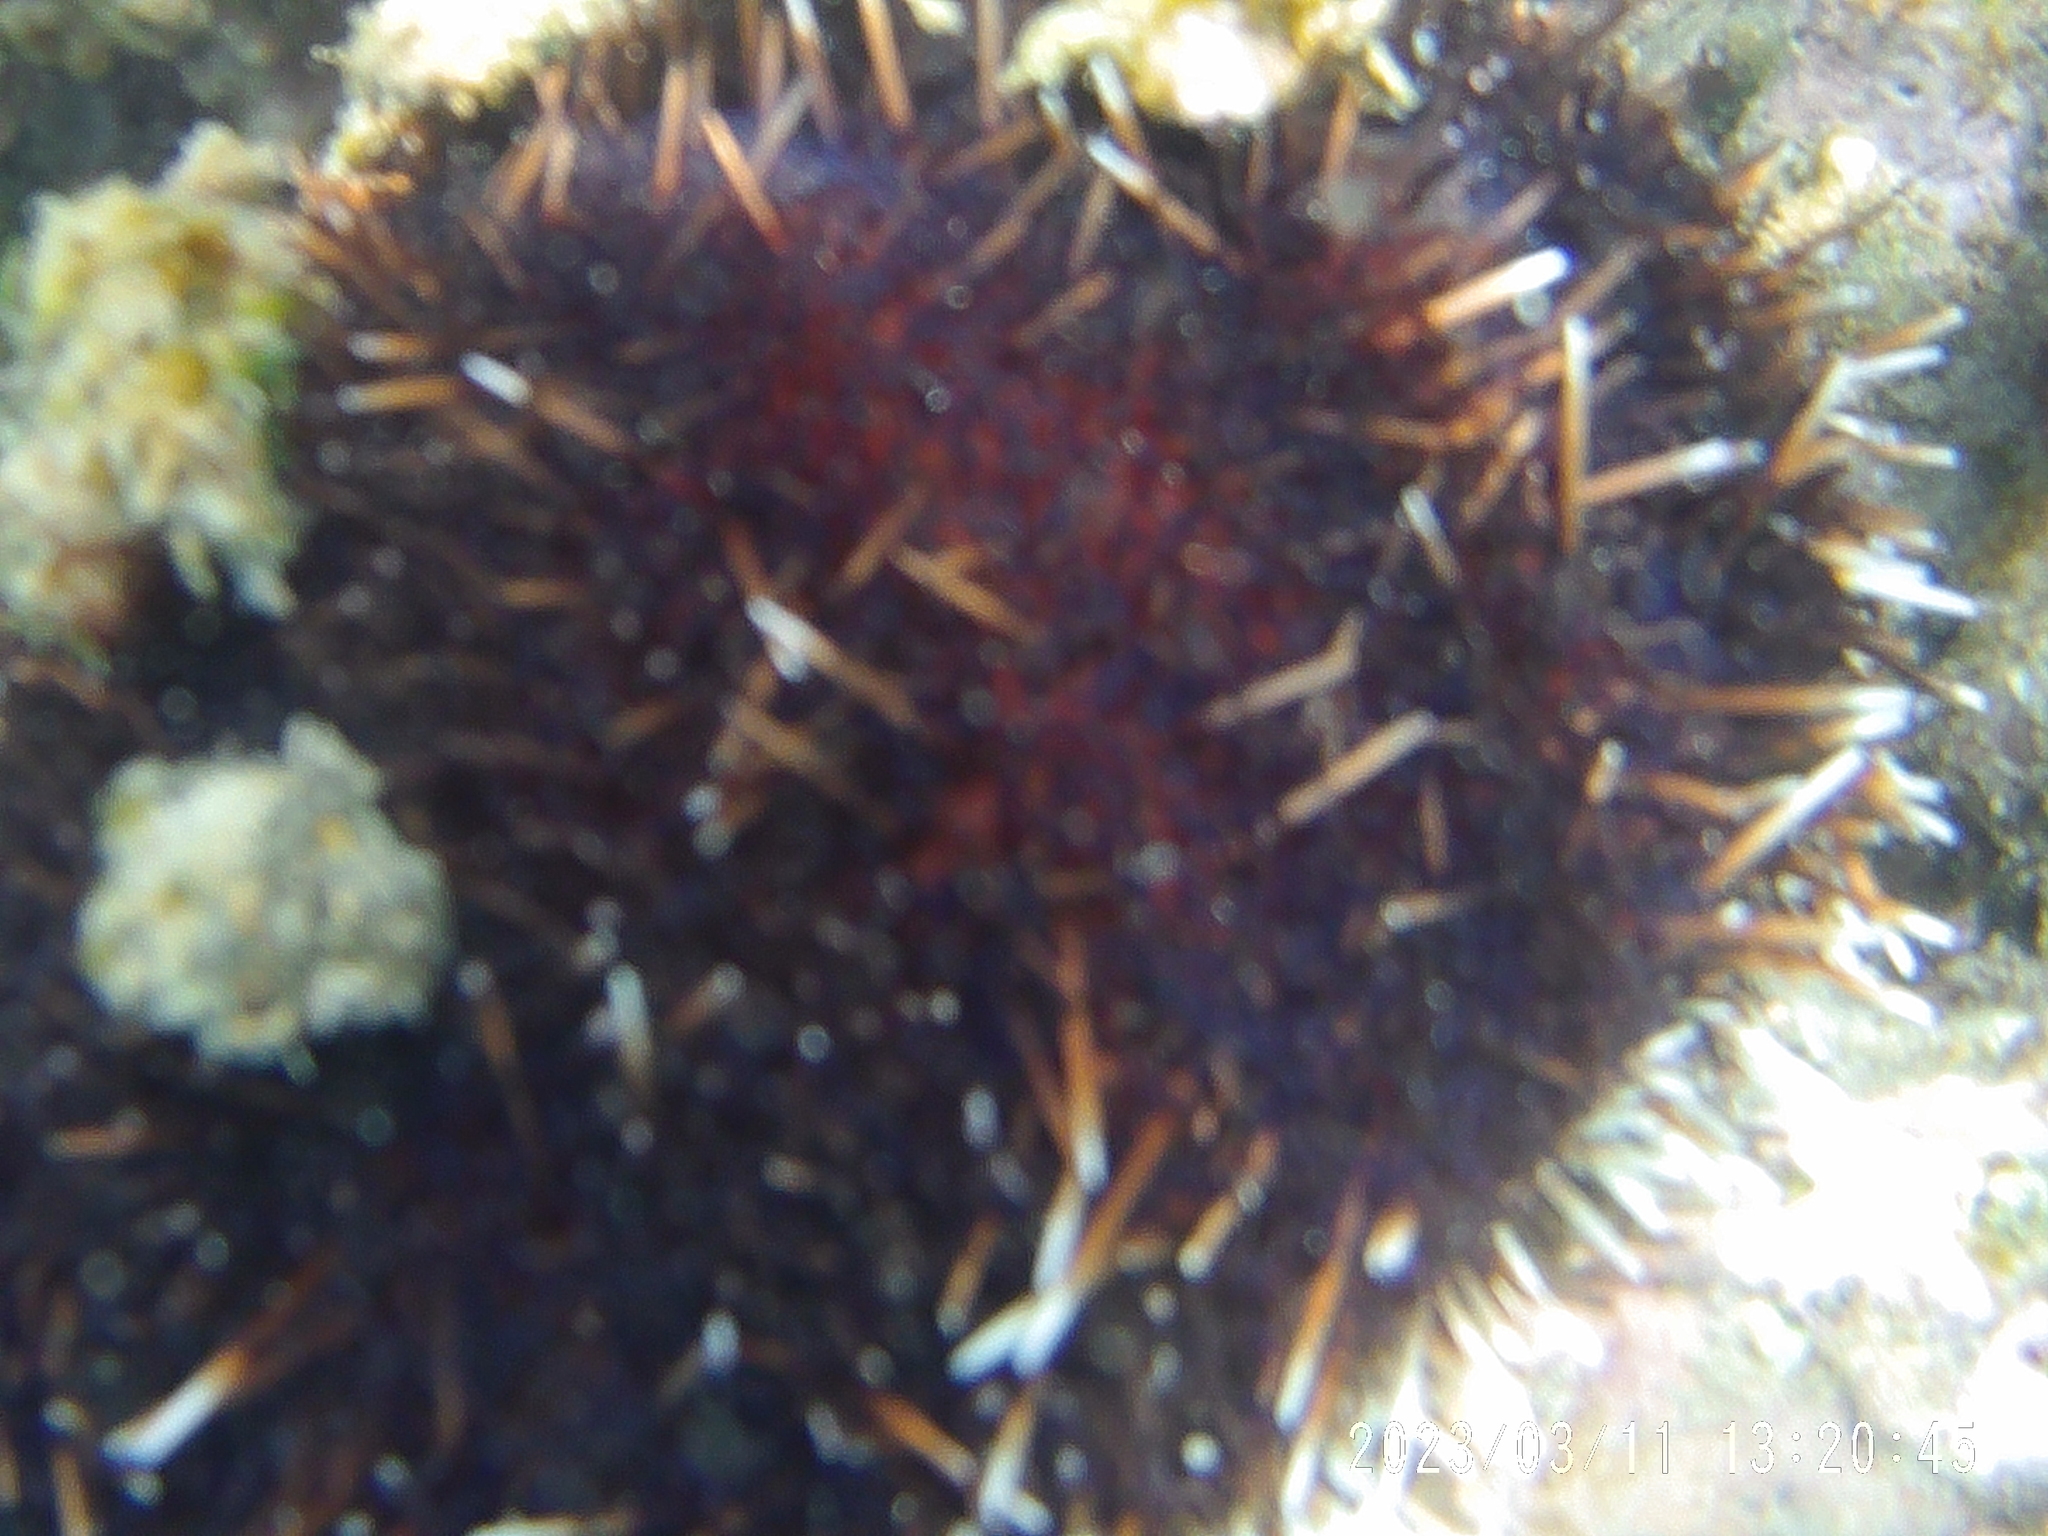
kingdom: Animalia
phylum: Echinodermata
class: Echinoidea
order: Camarodonta
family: Toxopneustidae
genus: Tripneustes
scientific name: Tripneustes gratilla
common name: Bischofsmützenseeigel
